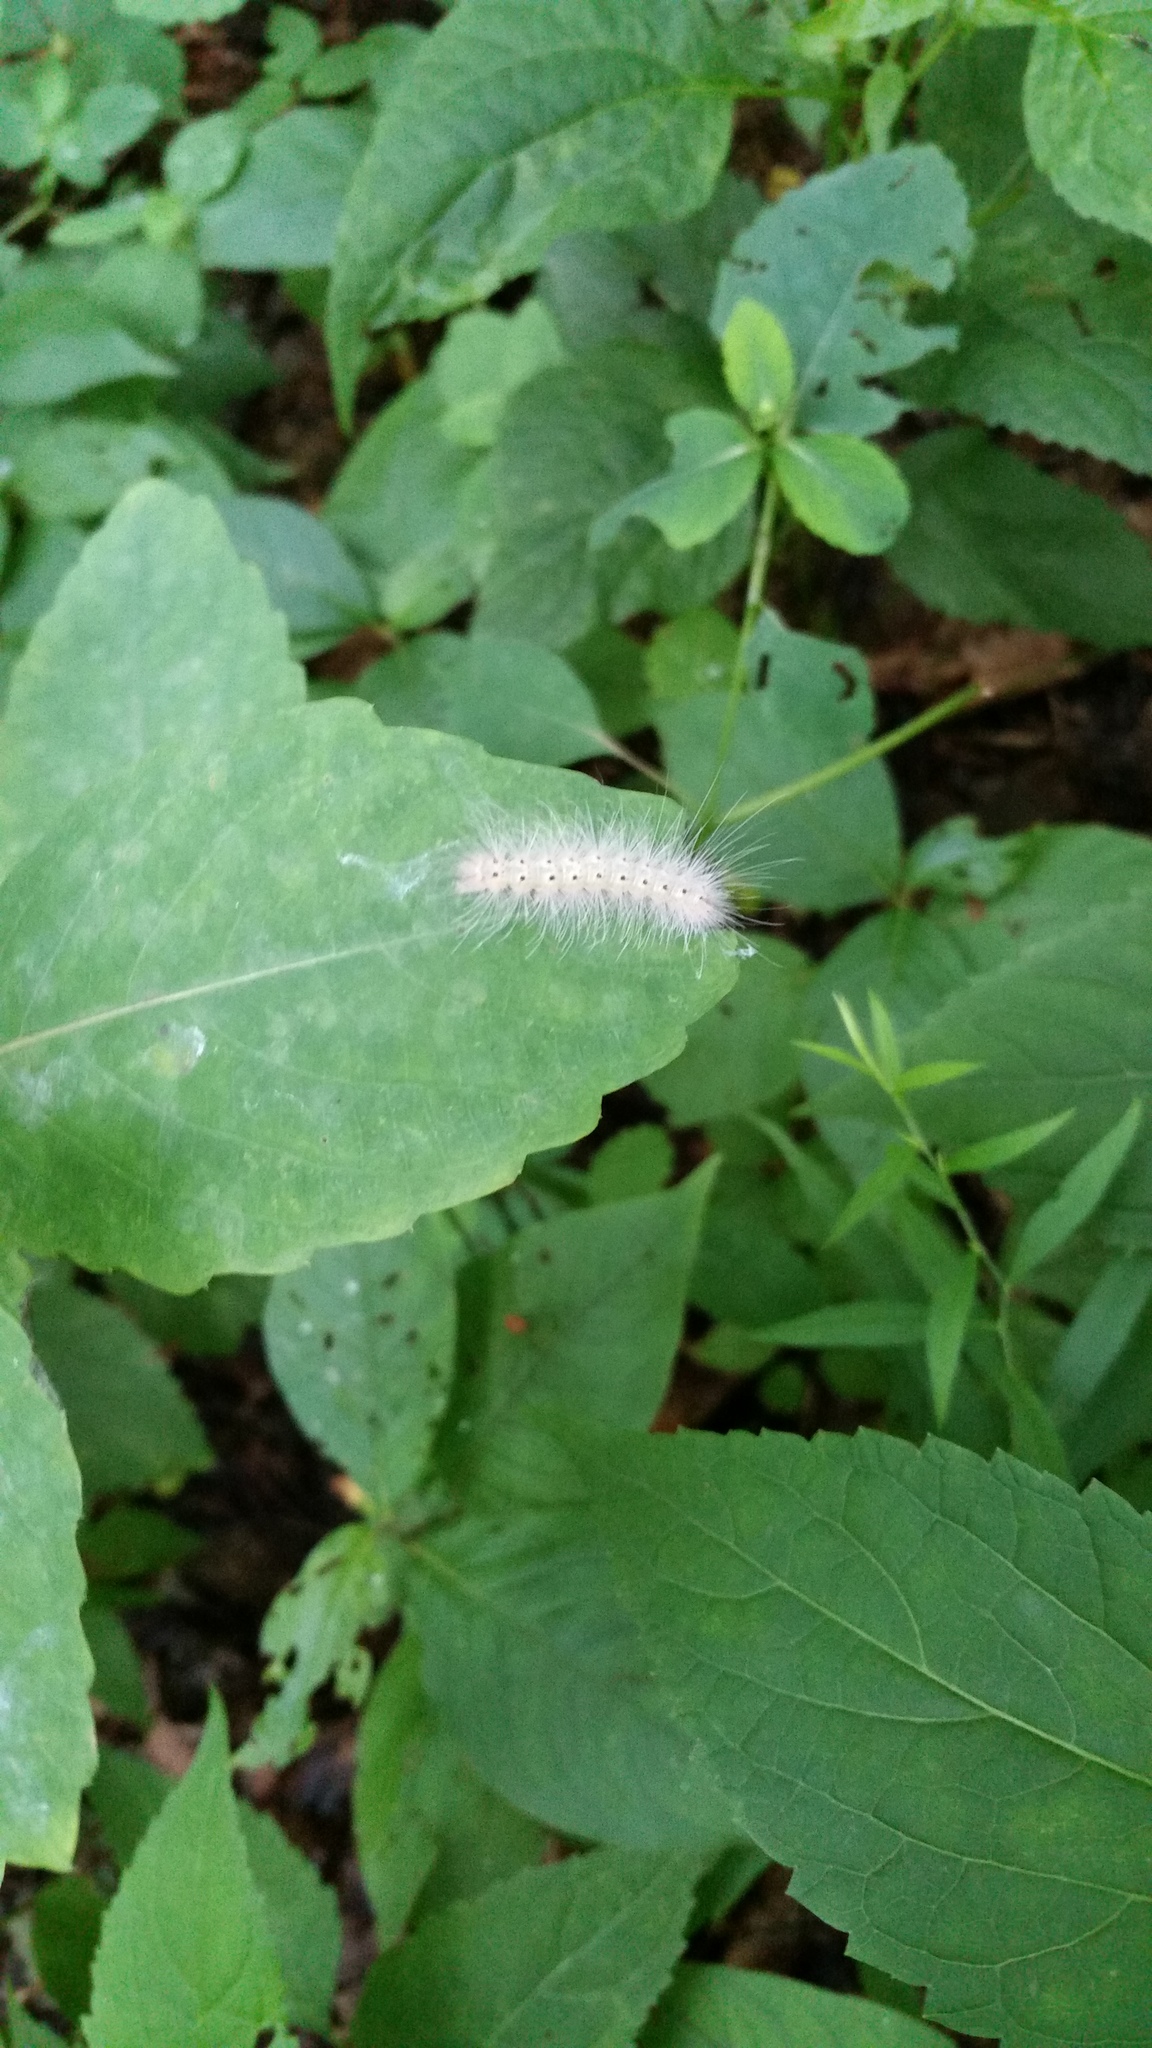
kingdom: Animalia
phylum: Arthropoda
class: Insecta
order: Lepidoptera
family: Erebidae
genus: Hyphantria
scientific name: Hyphantria cunea
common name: American white moth
